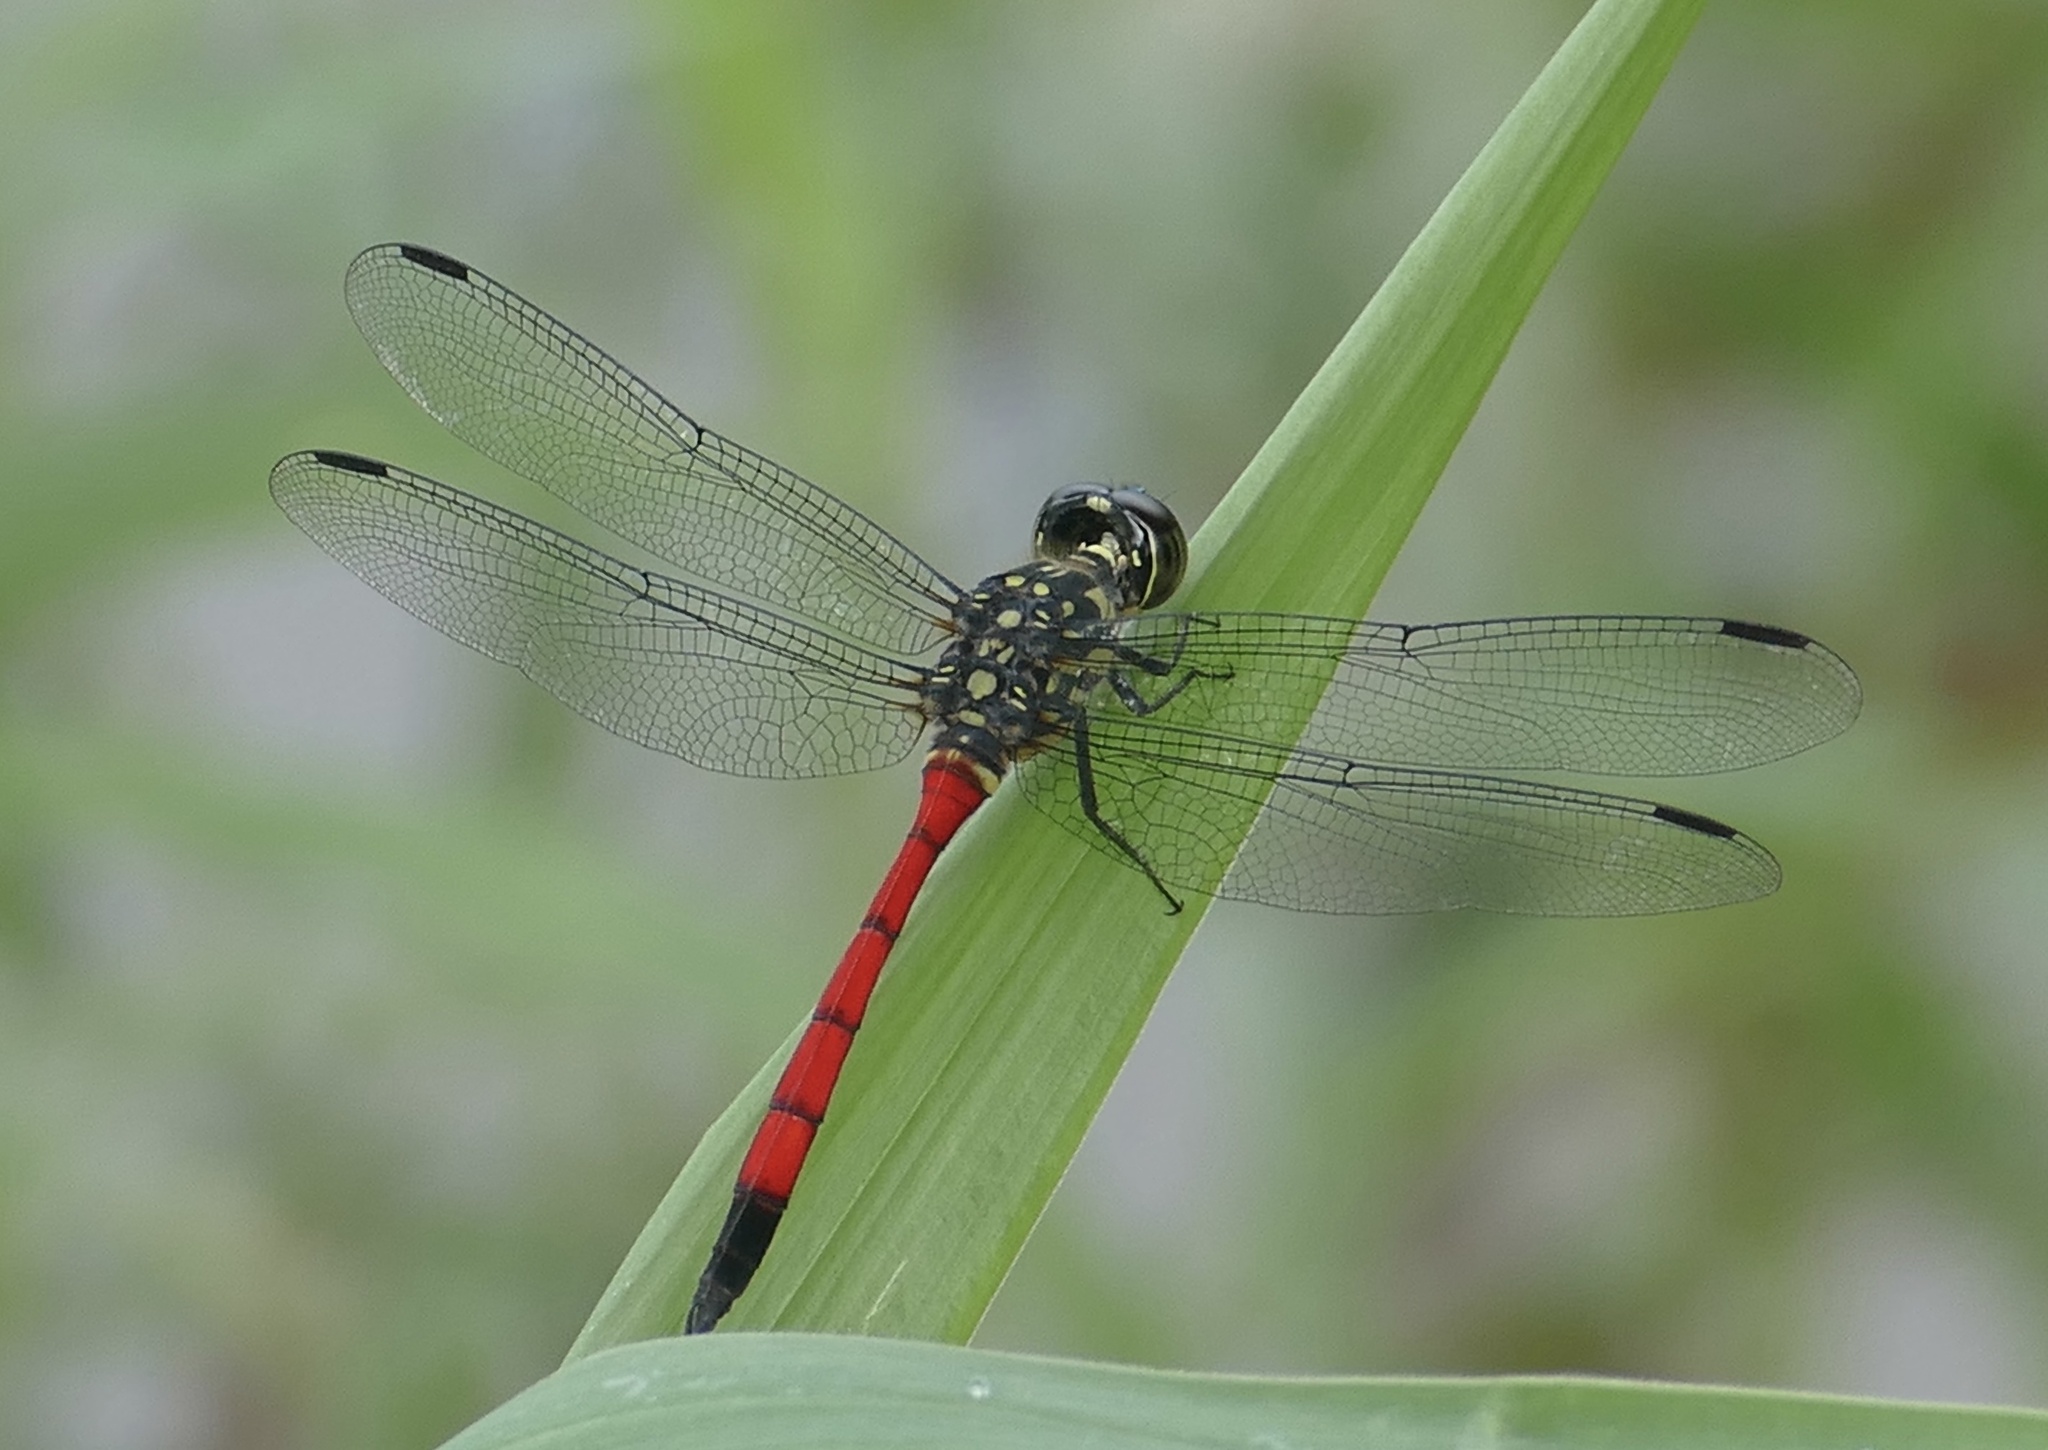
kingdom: Animalia
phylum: Arthropoda
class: Insecta
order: Odonata
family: Libellulidae
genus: Agrionoptera
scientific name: Agrionoptera insignis
